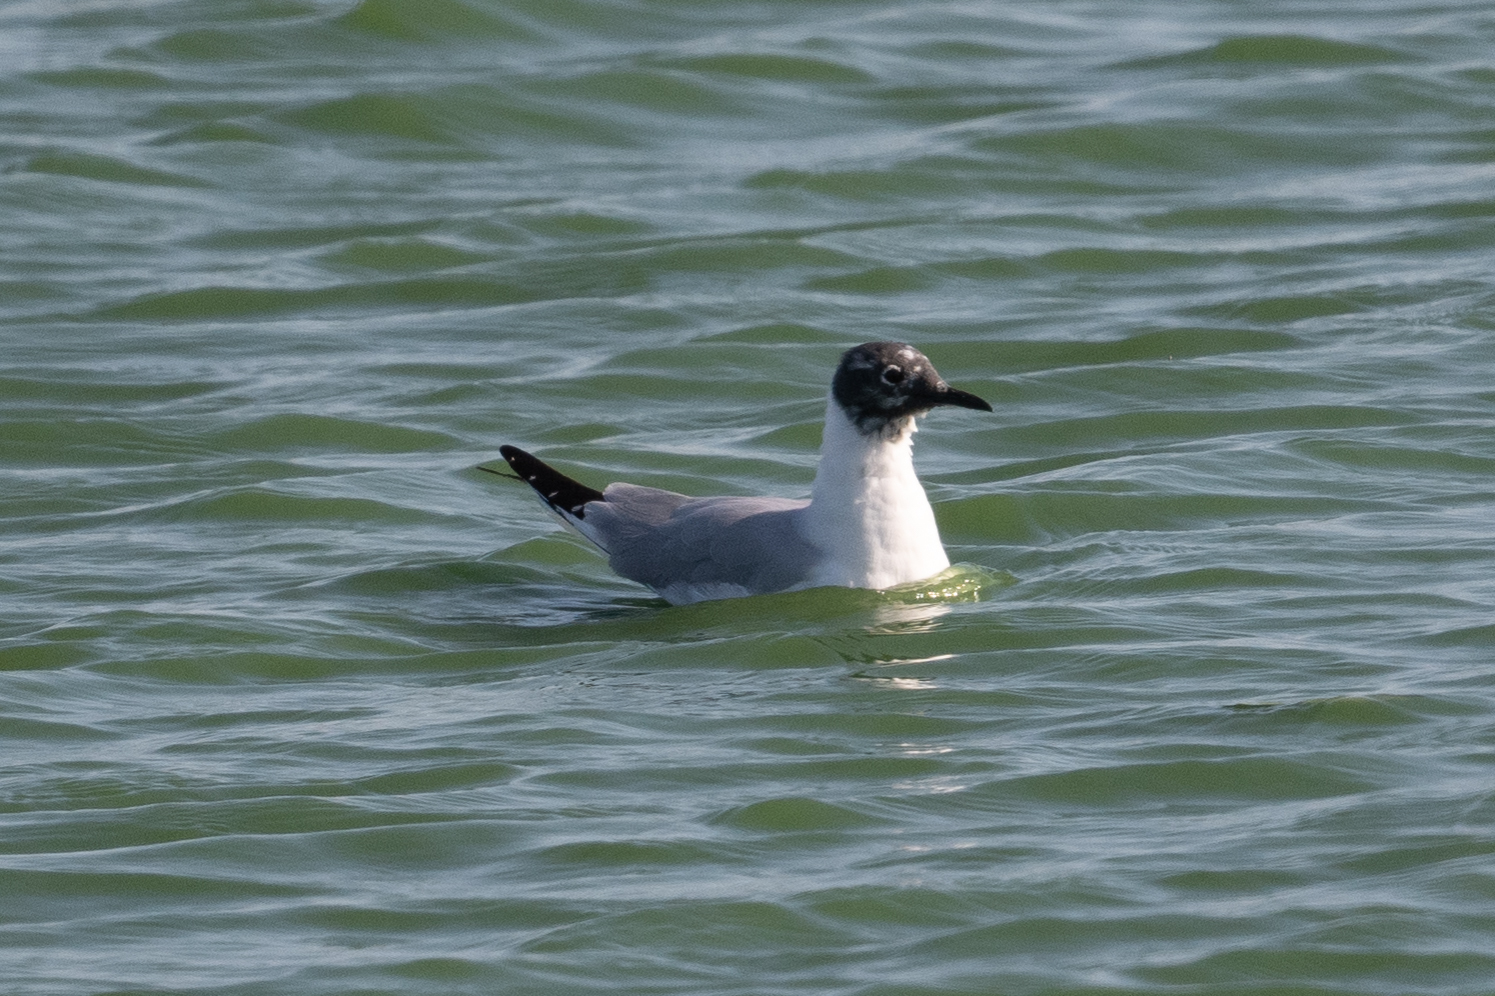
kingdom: Animalia
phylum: Chordata
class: Aves
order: Charadriiformes
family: Laridae
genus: Chroicocephalus
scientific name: Chroicocephalus philadelphia
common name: Bonaparte's gull
